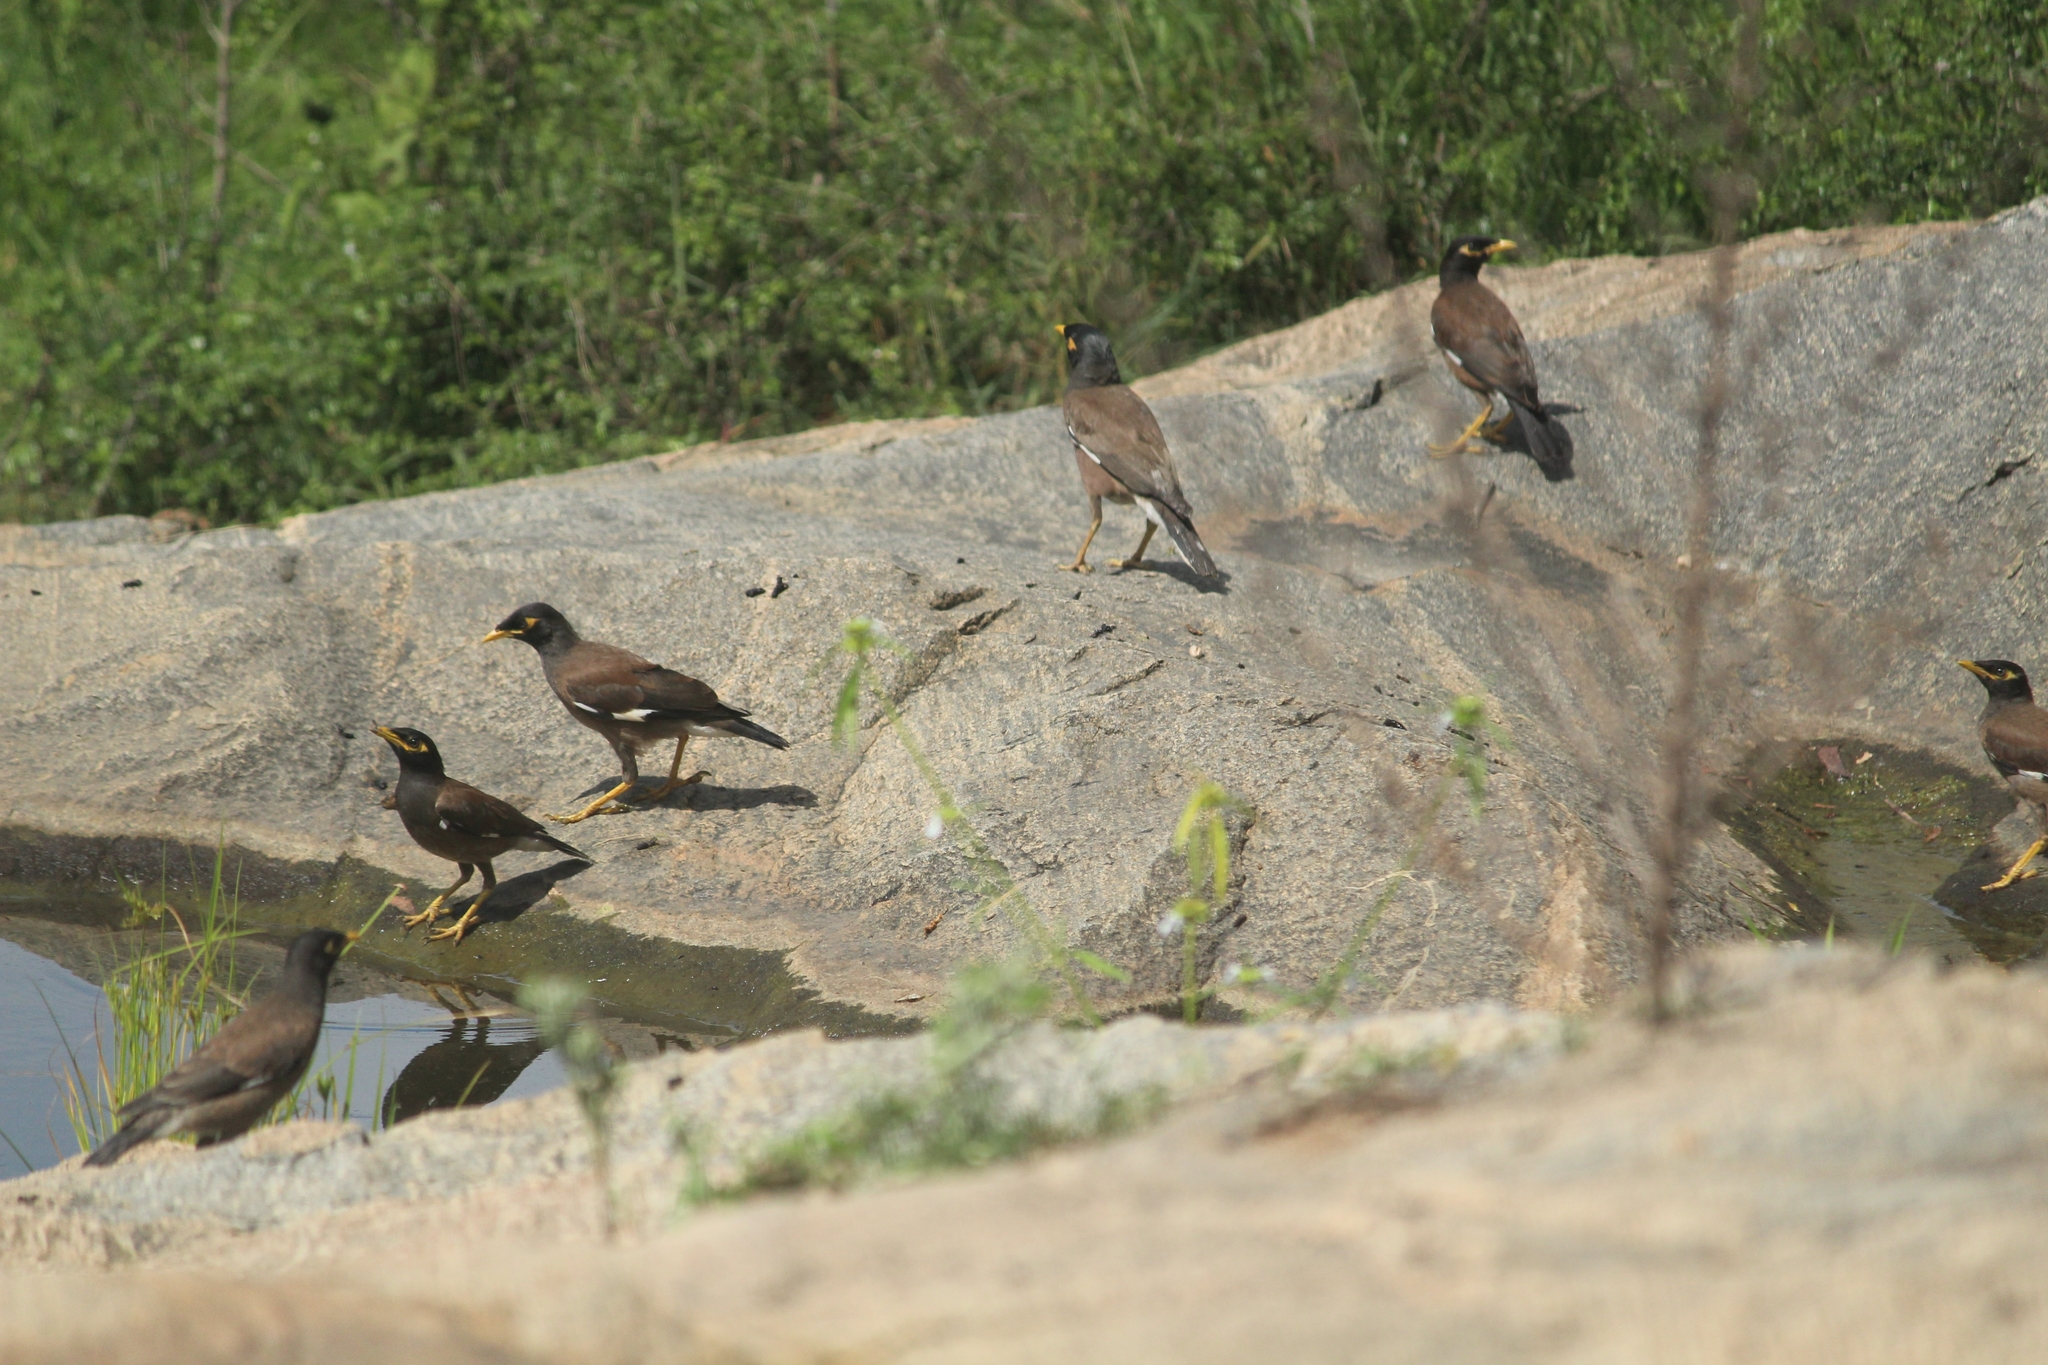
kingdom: Animalia
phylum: Chordata
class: Aves
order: Passeriformes
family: Sturnidae
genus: Acridotheres
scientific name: Acridotheres tristis
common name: Common myna
